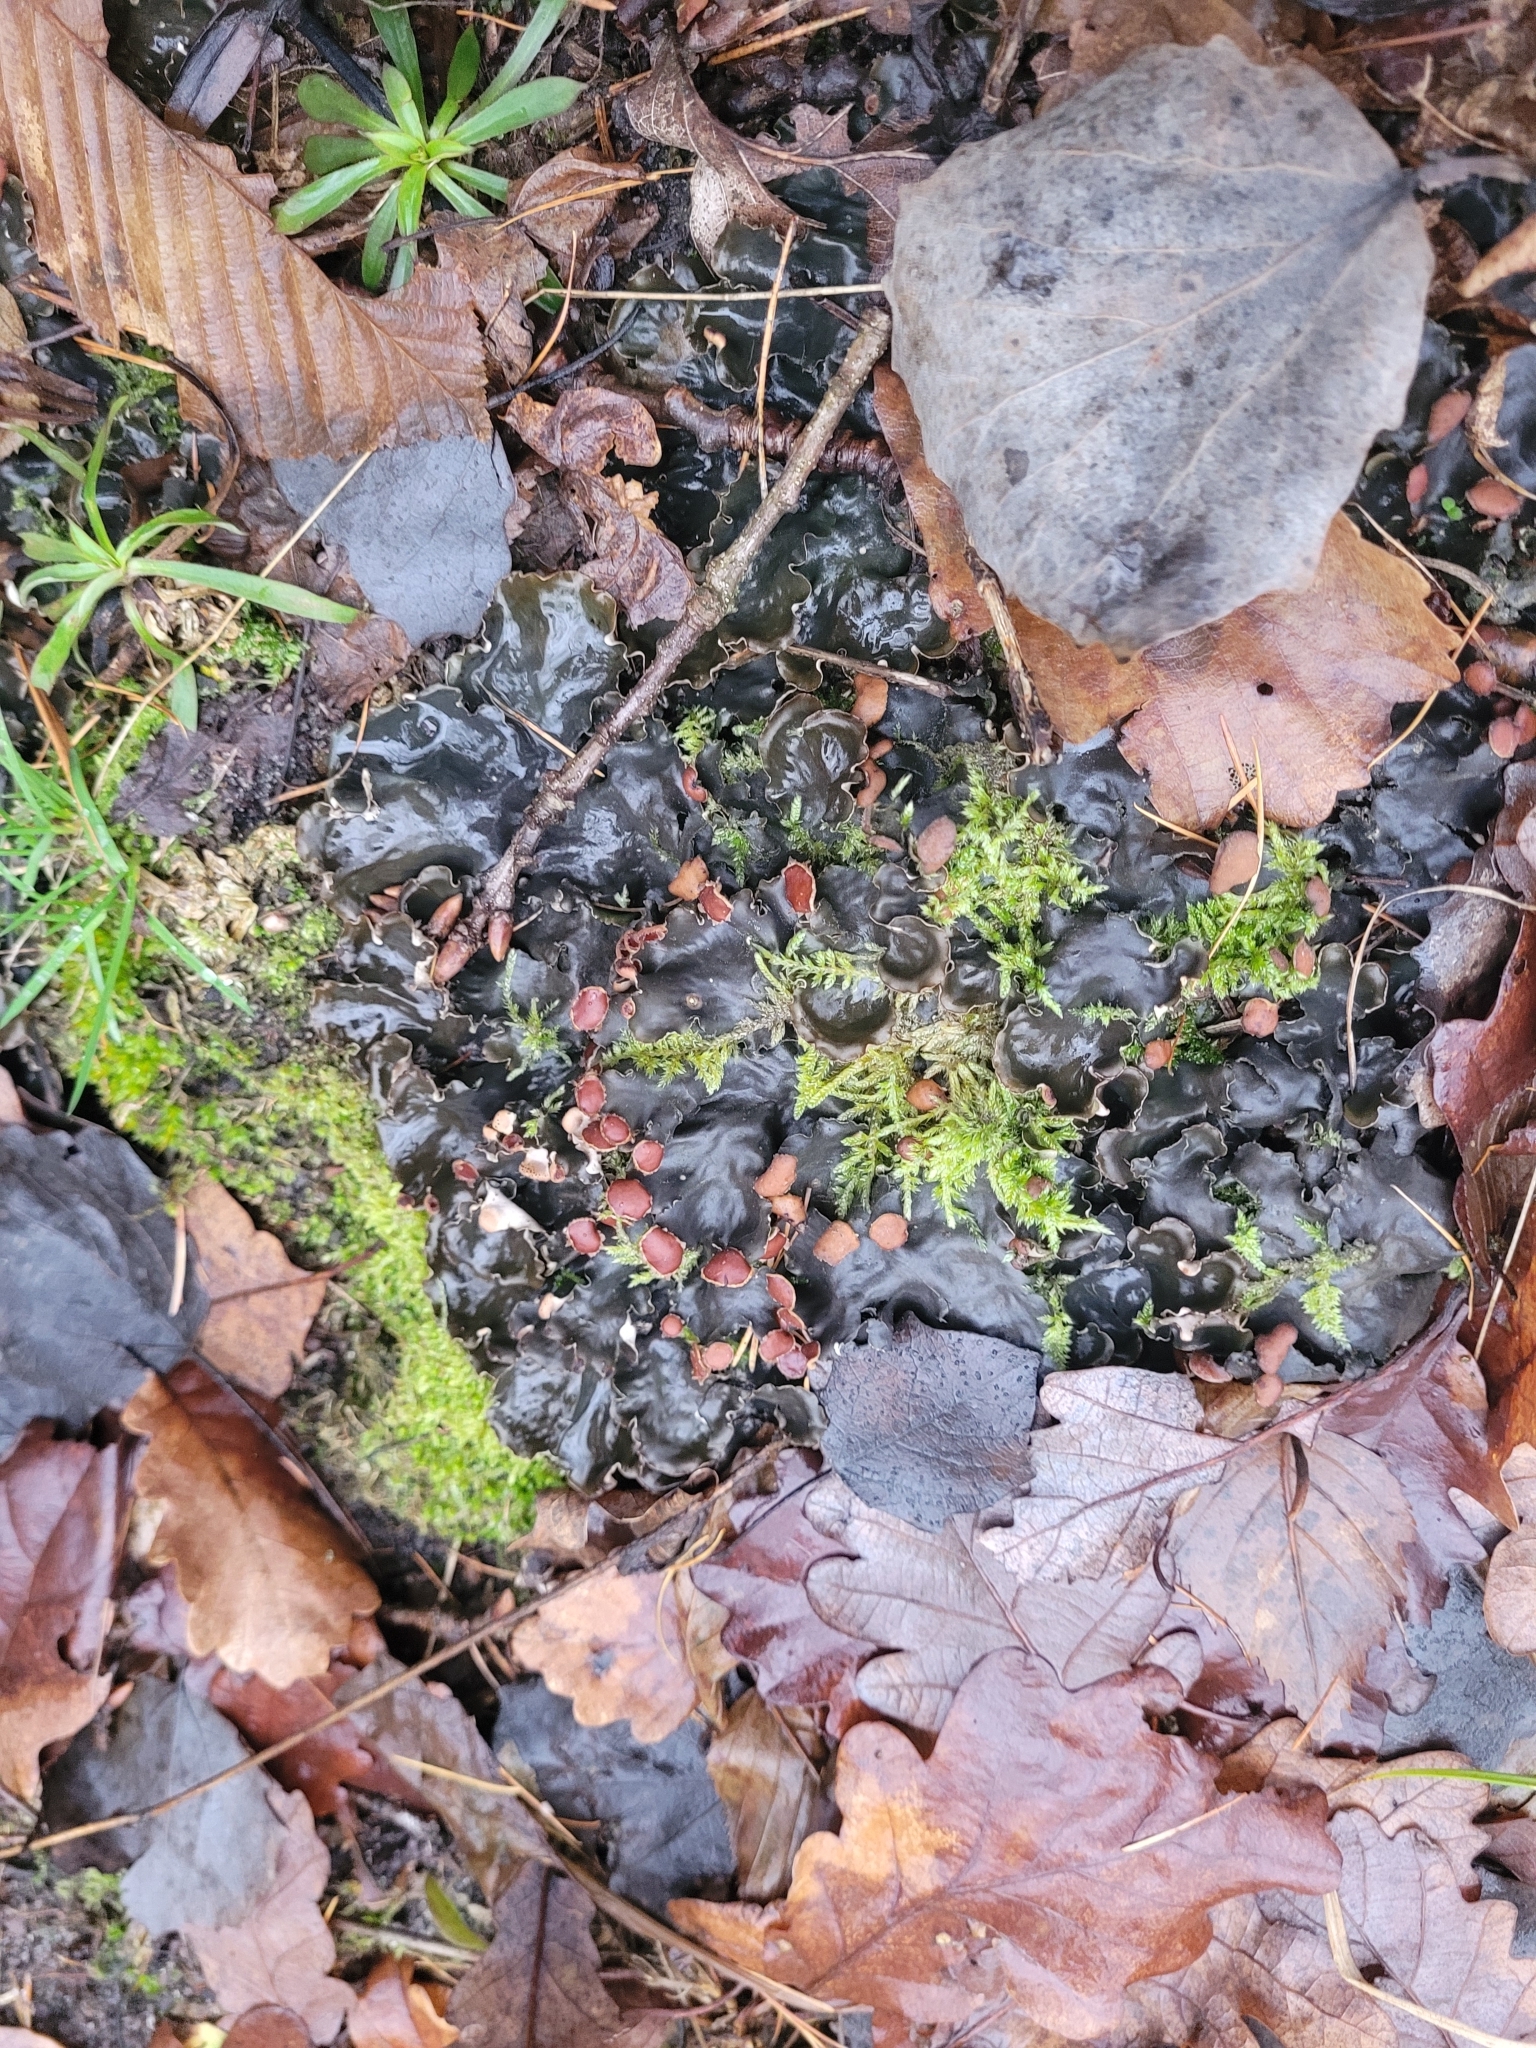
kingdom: Fungi
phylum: Ascomycota
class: Lecanoromycetes
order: Peltigerales
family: Peltigeraceae
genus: Peltigera
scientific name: Peltigera horizontalis
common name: Flat fruited pelt
